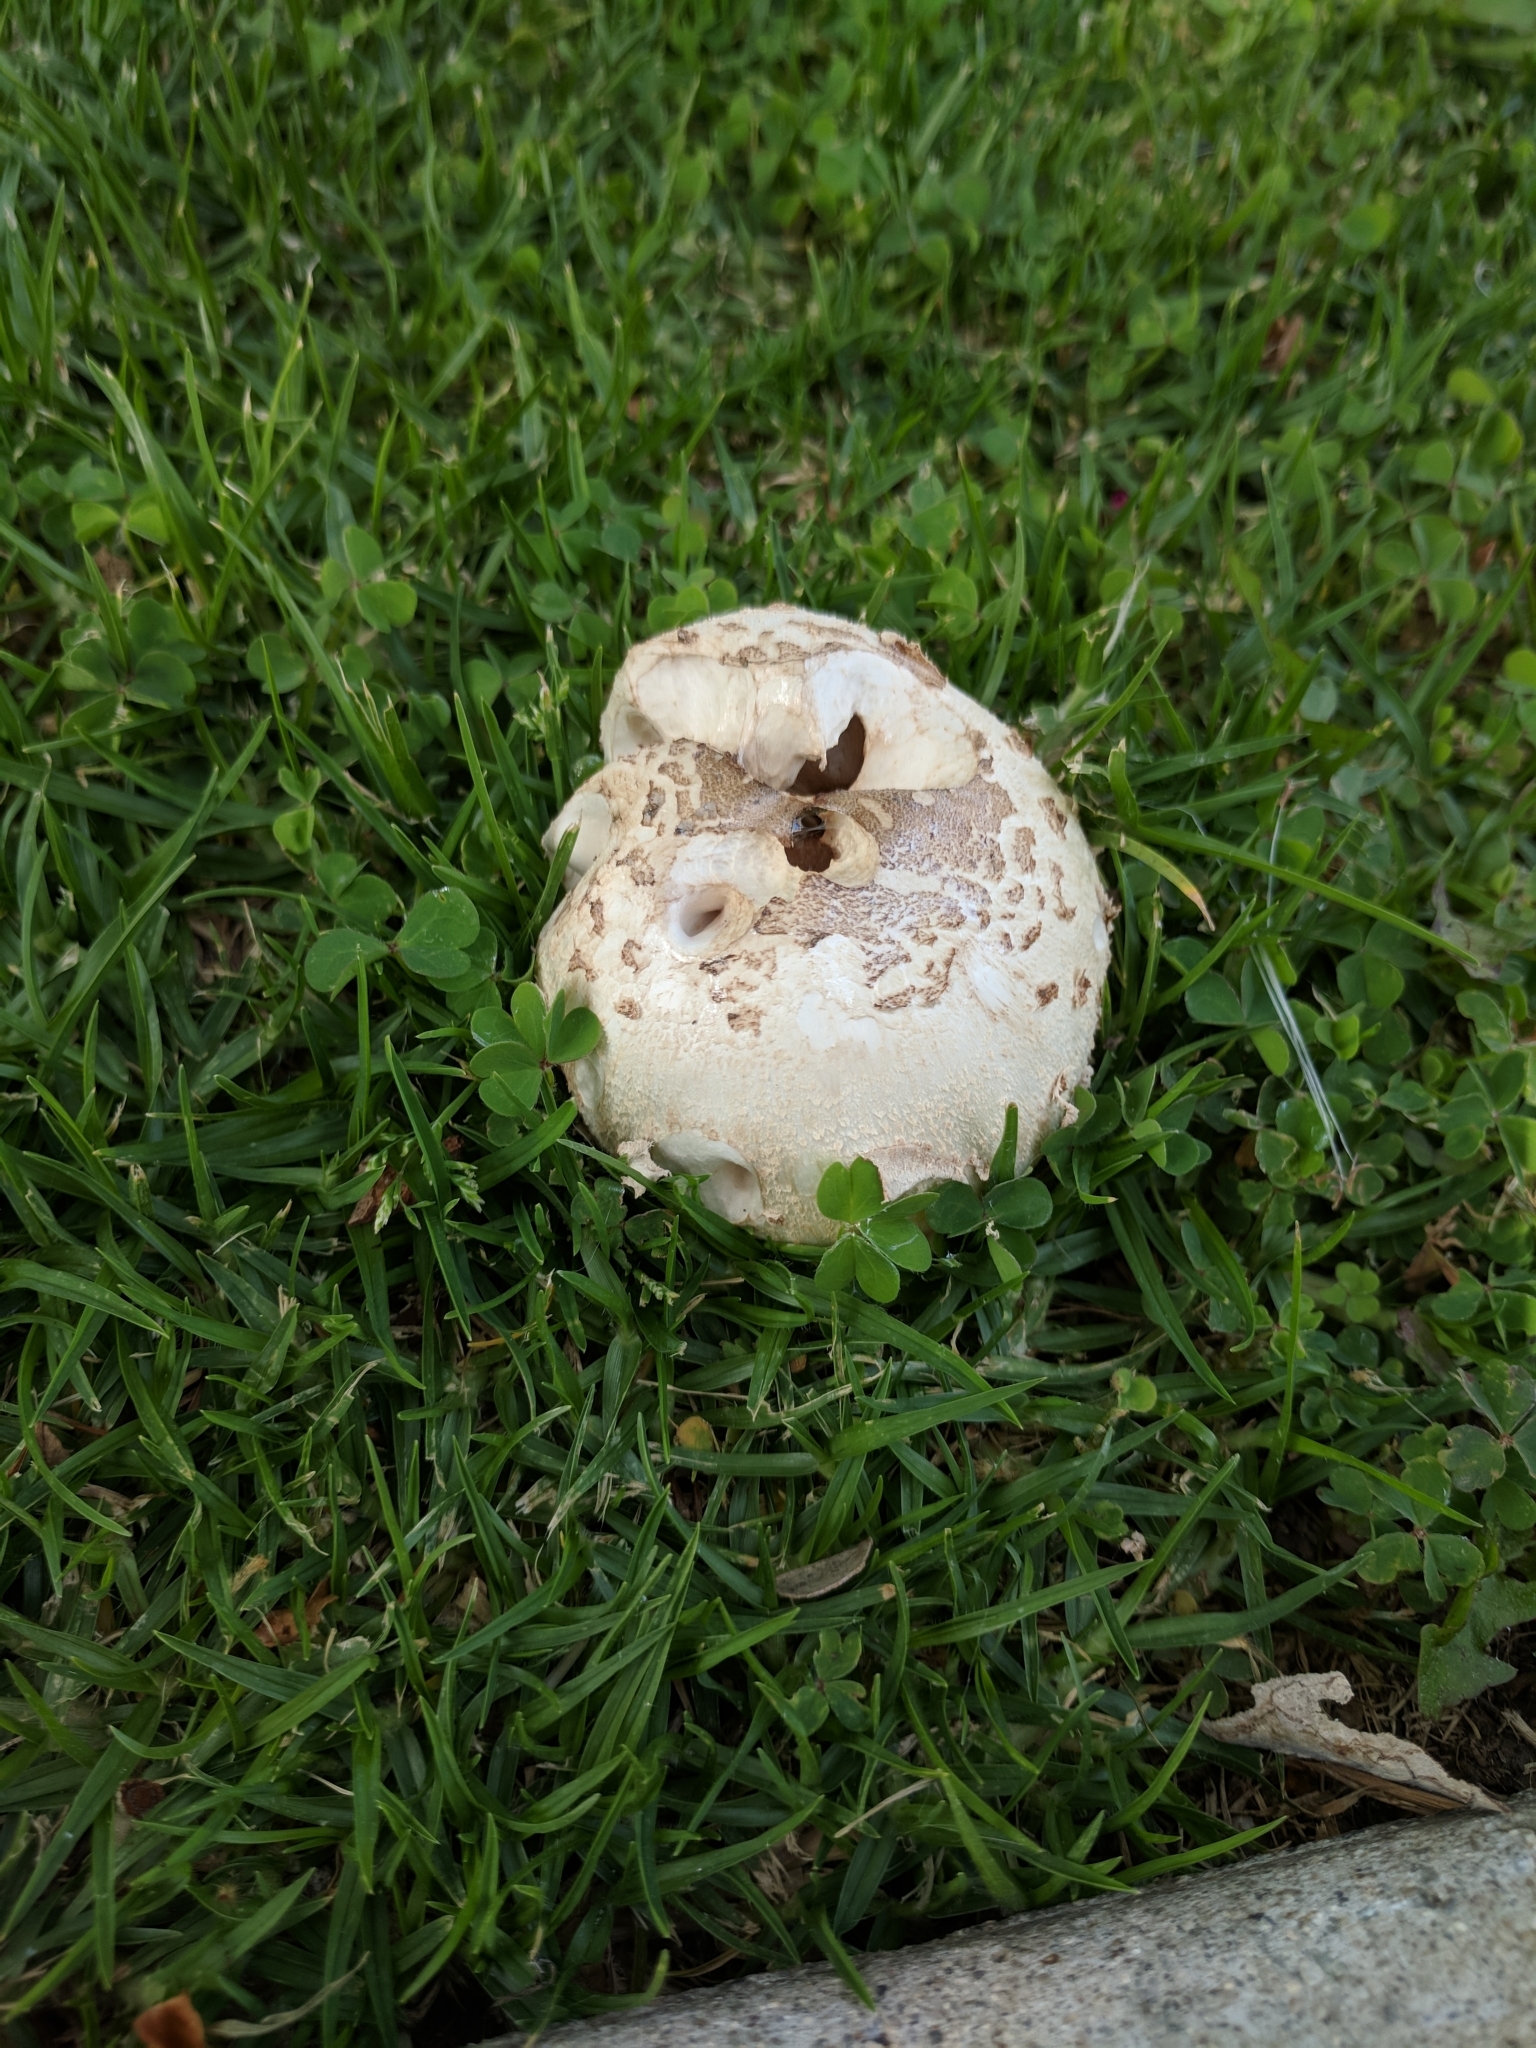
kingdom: Fungi
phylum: Basidiomycota
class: Agaricomycetes
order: Agaricales
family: Agaricaceae
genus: Chlorophyllum
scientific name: Chlorophyllum molybdites
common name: False parasol
